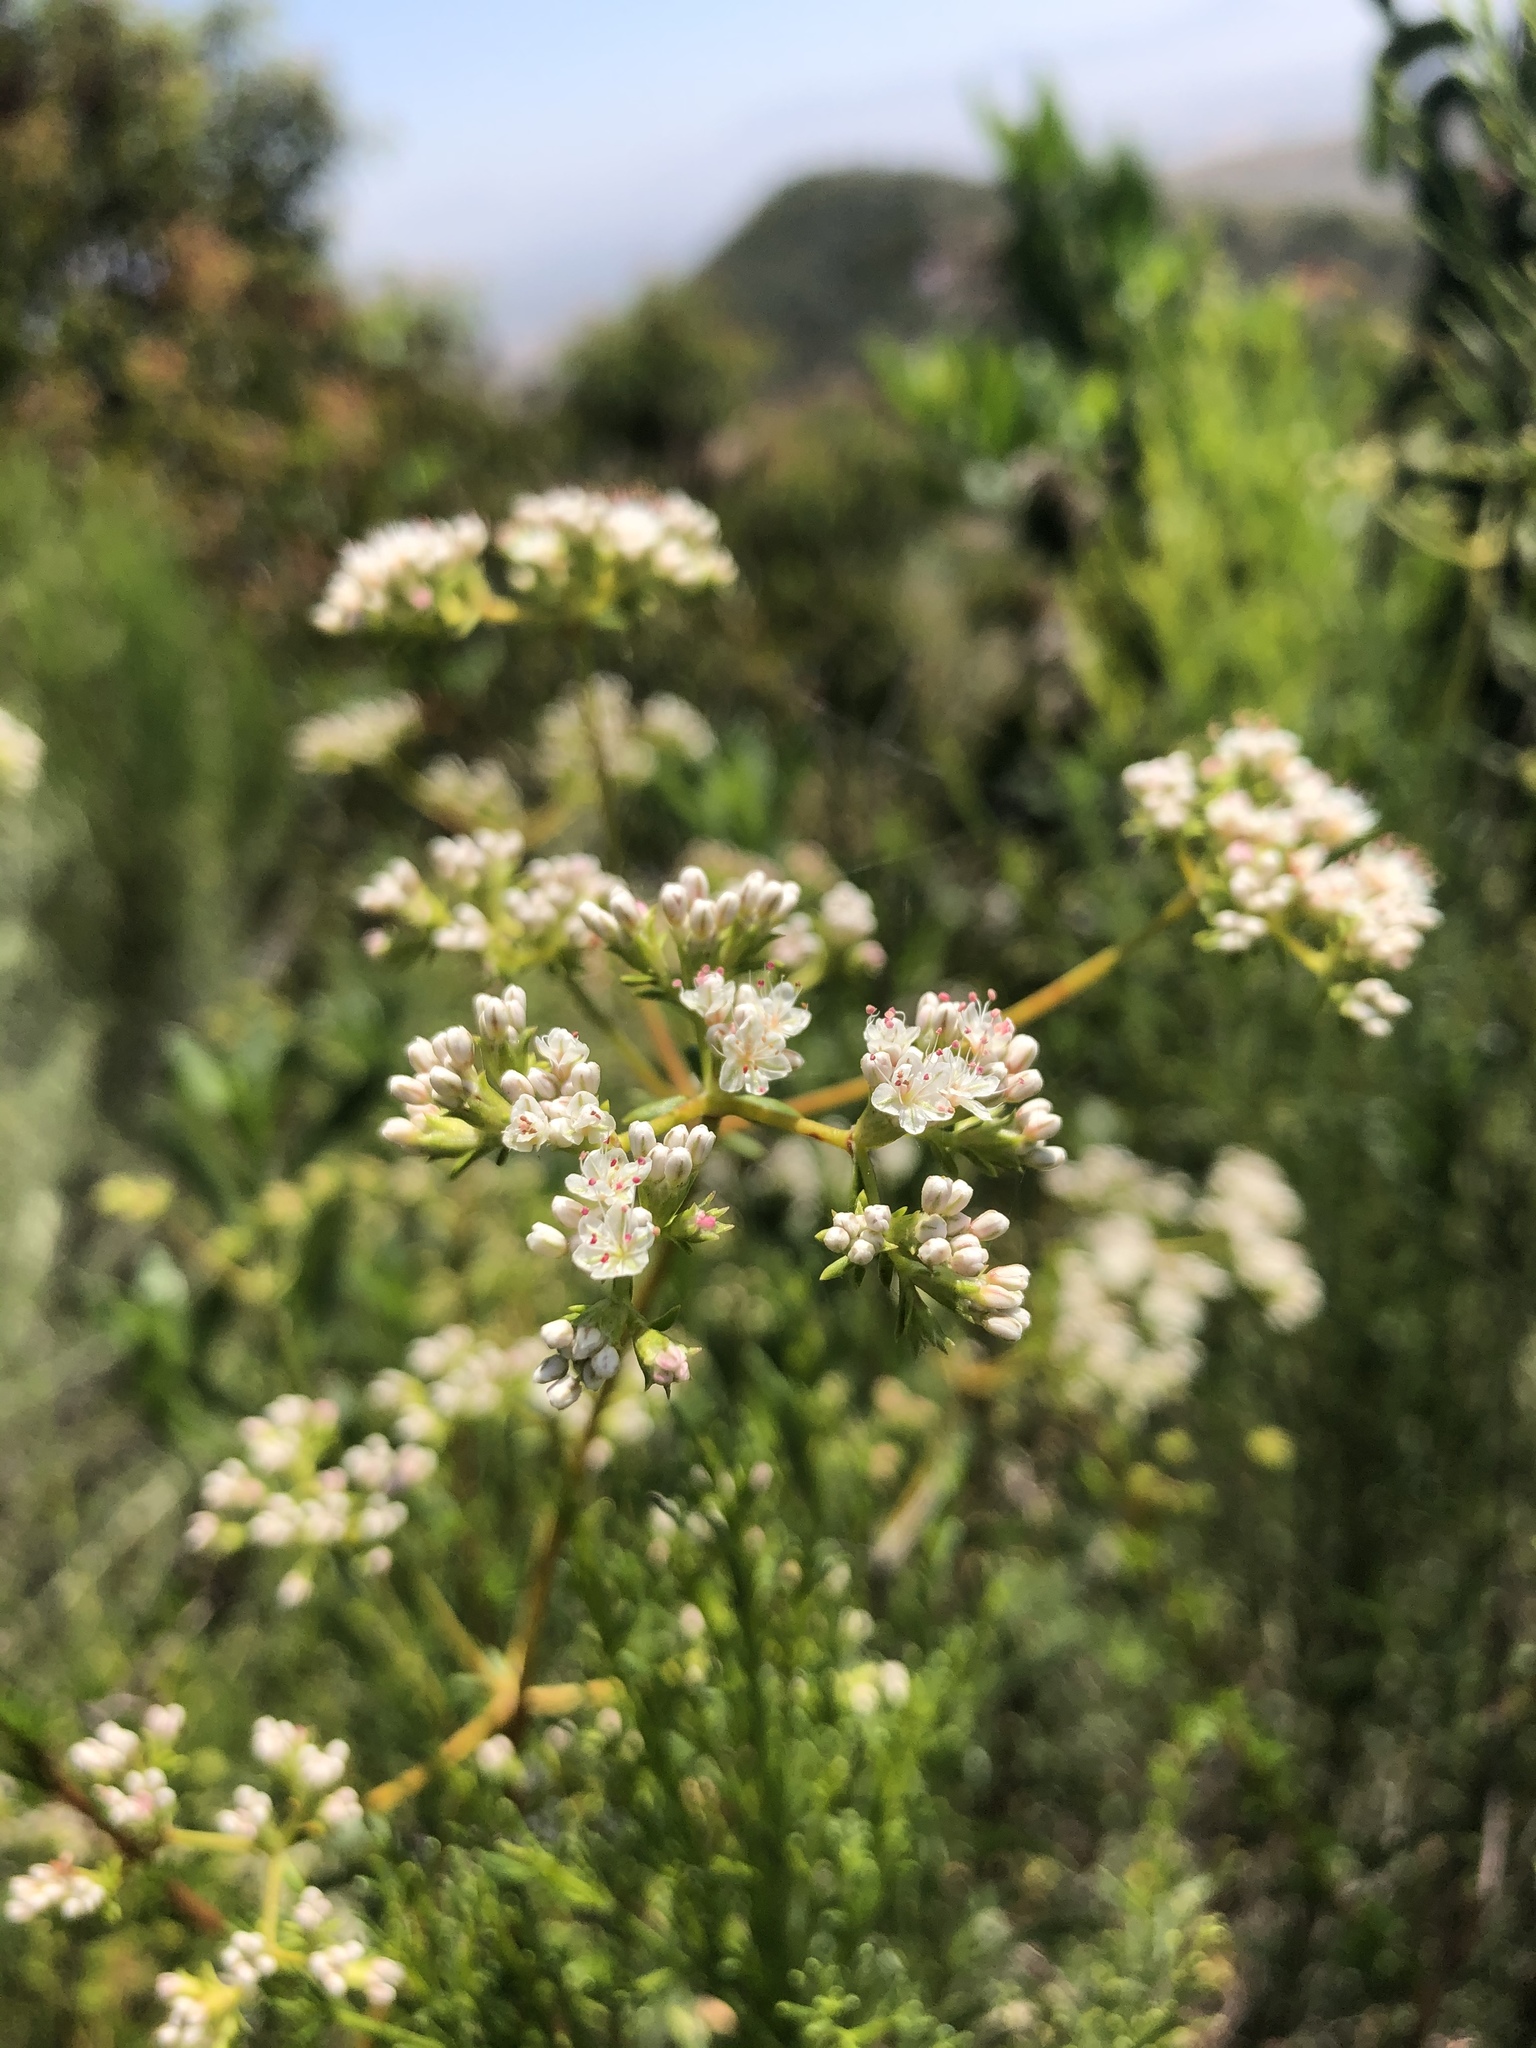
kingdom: Plantae
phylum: Tracheophyta
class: Magnoliopsida
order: Caryophyllales
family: Polygonaceae
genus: Eriogonum
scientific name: Eriogonum fasciculatum
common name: California wild buckwheat
